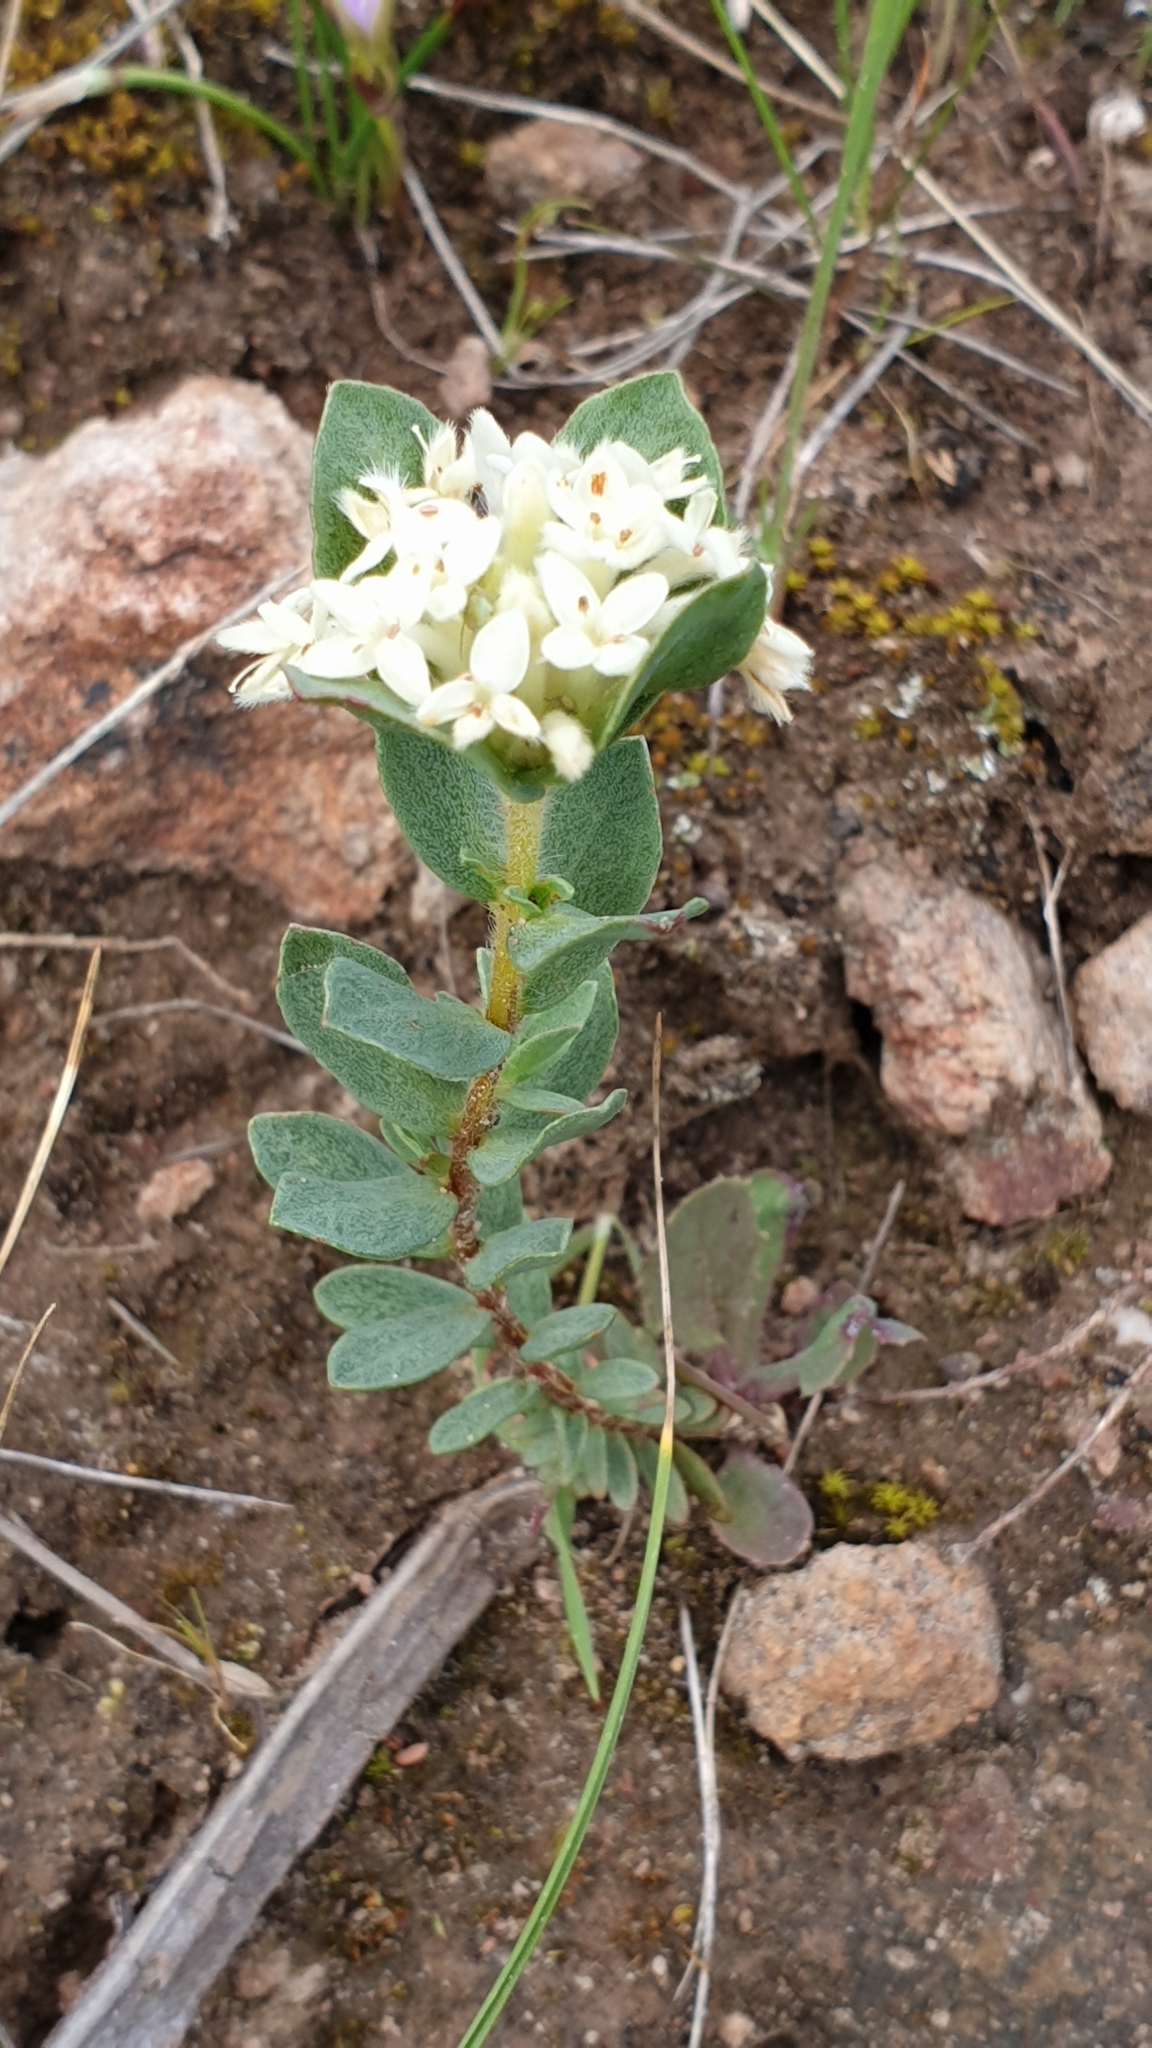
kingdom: Plantae
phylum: Tracheophyta
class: Magnoliopsida
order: Malvales
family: Thymelaeaceae
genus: Pimelea
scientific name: Pimelea humilis
